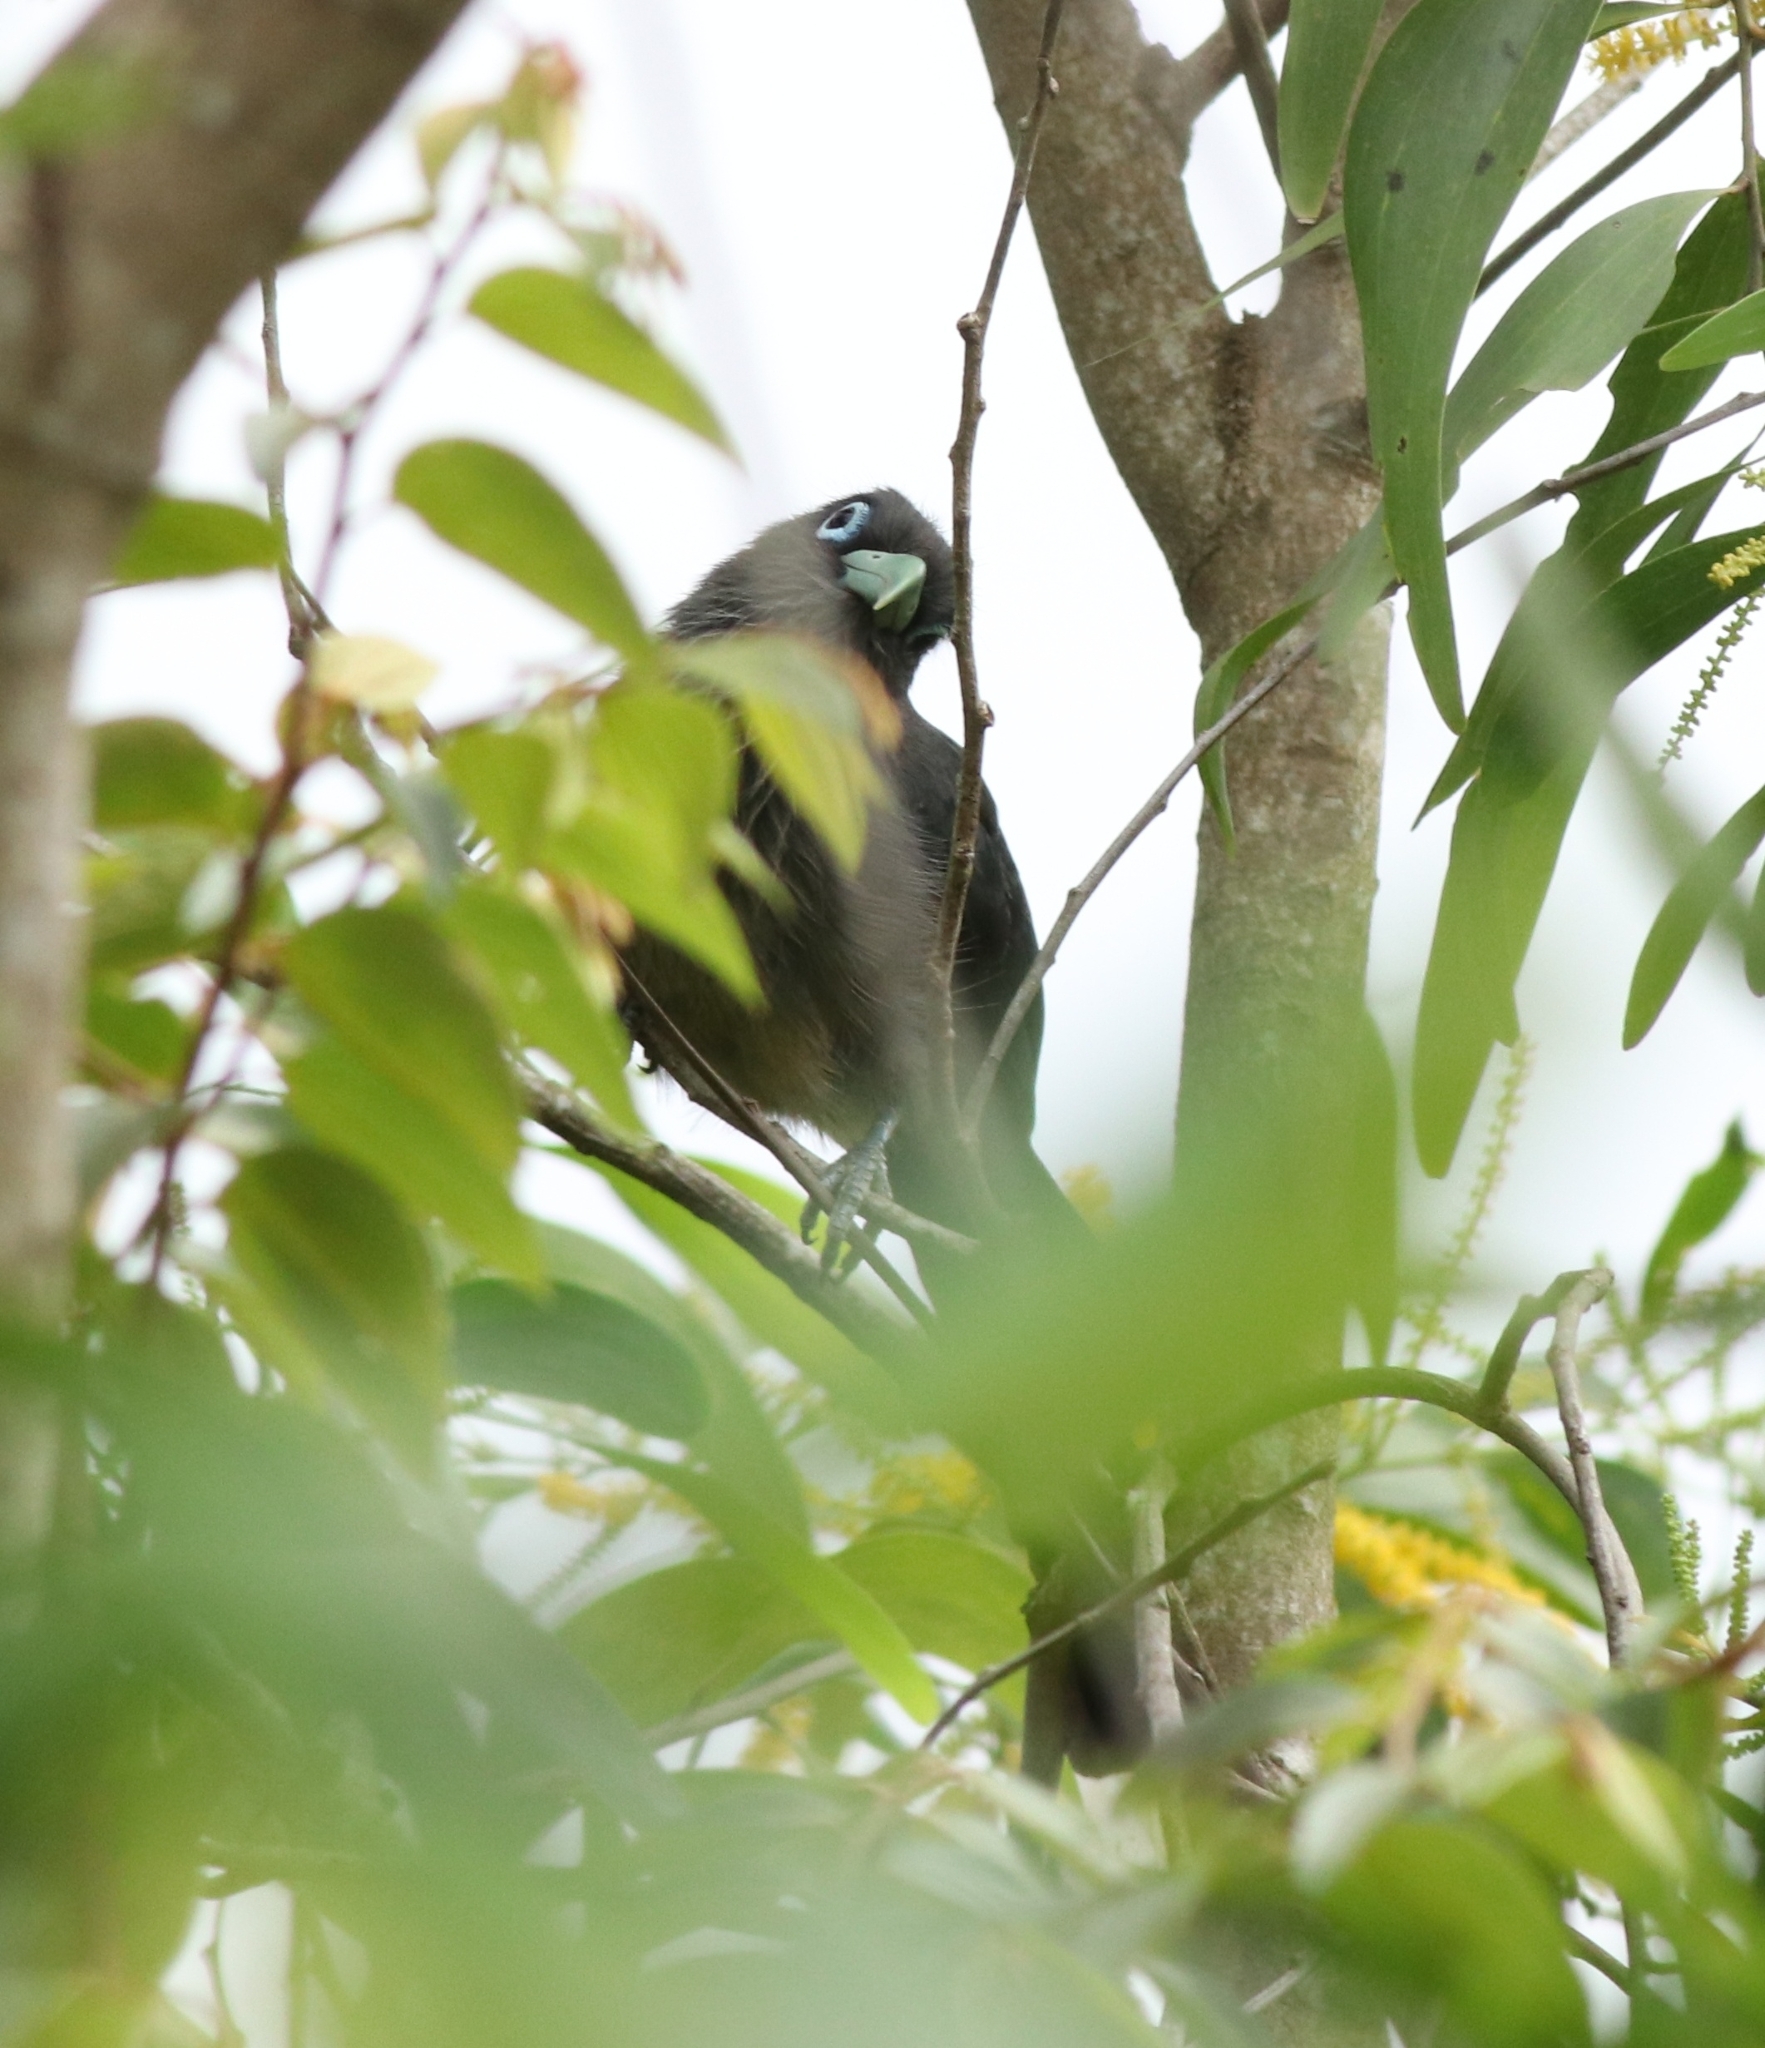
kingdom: Animalia
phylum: Chordata
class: Aves
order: Cuculiformes
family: Cuculidae
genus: Rhopodytes
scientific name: Rhopodytes viridirostris
